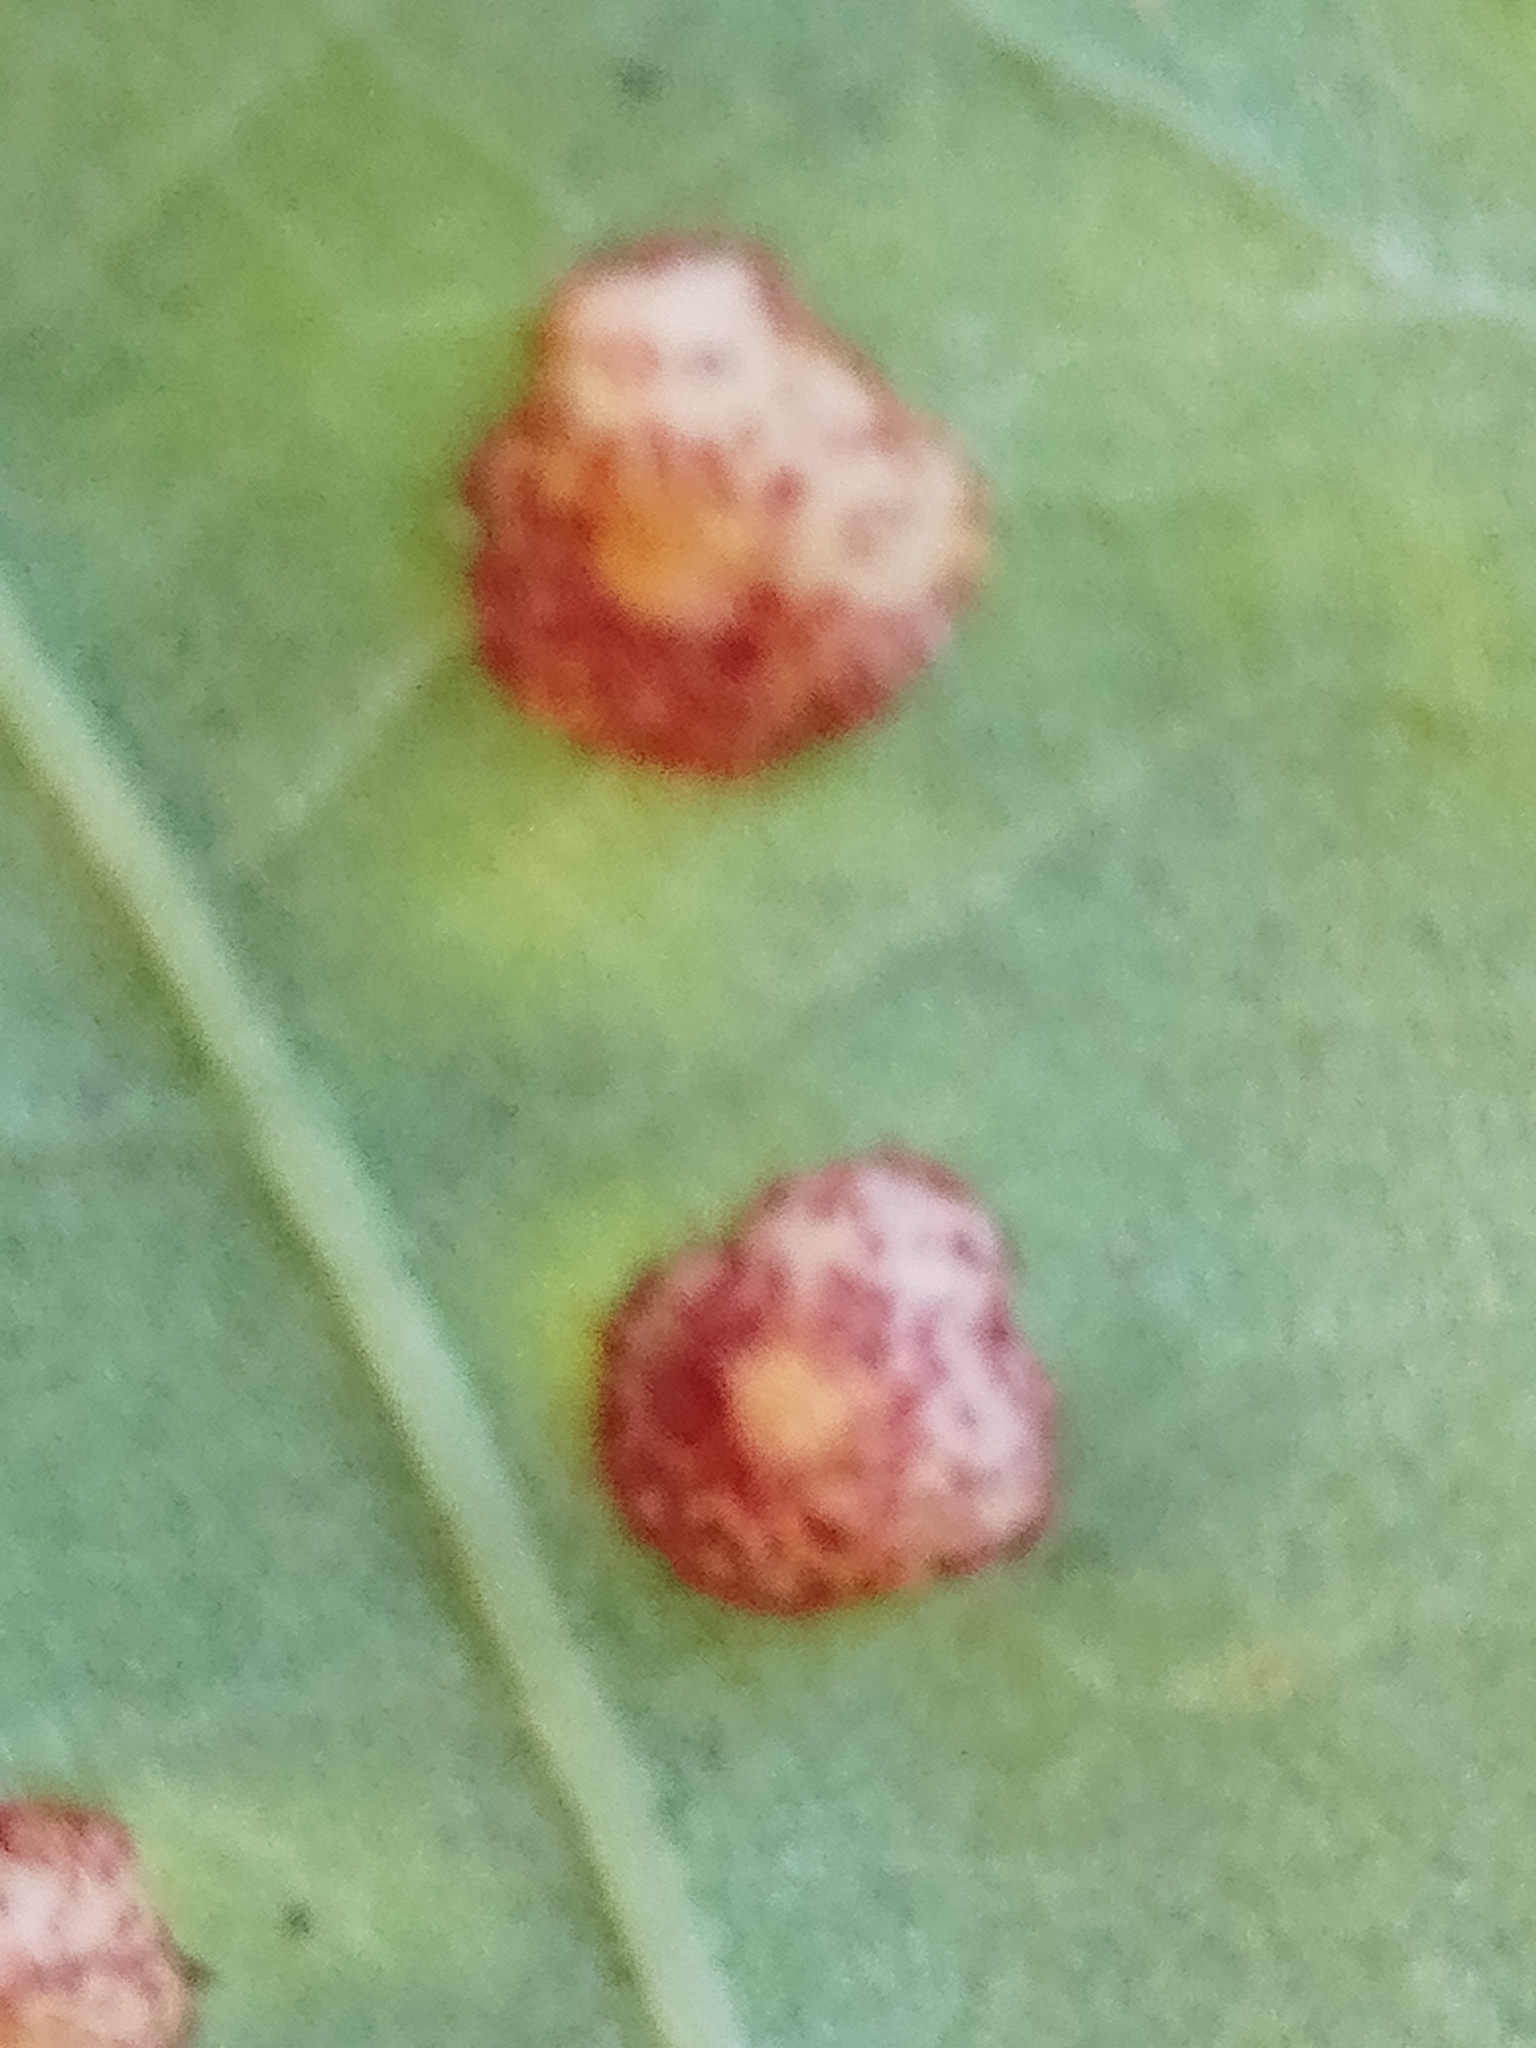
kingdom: Animalia
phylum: Arthropoda
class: Insecta
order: Hymenoptera
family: Cynipidae
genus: Neuroterus
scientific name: Neuroterus quercusbaccarum
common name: Common spangle gall
